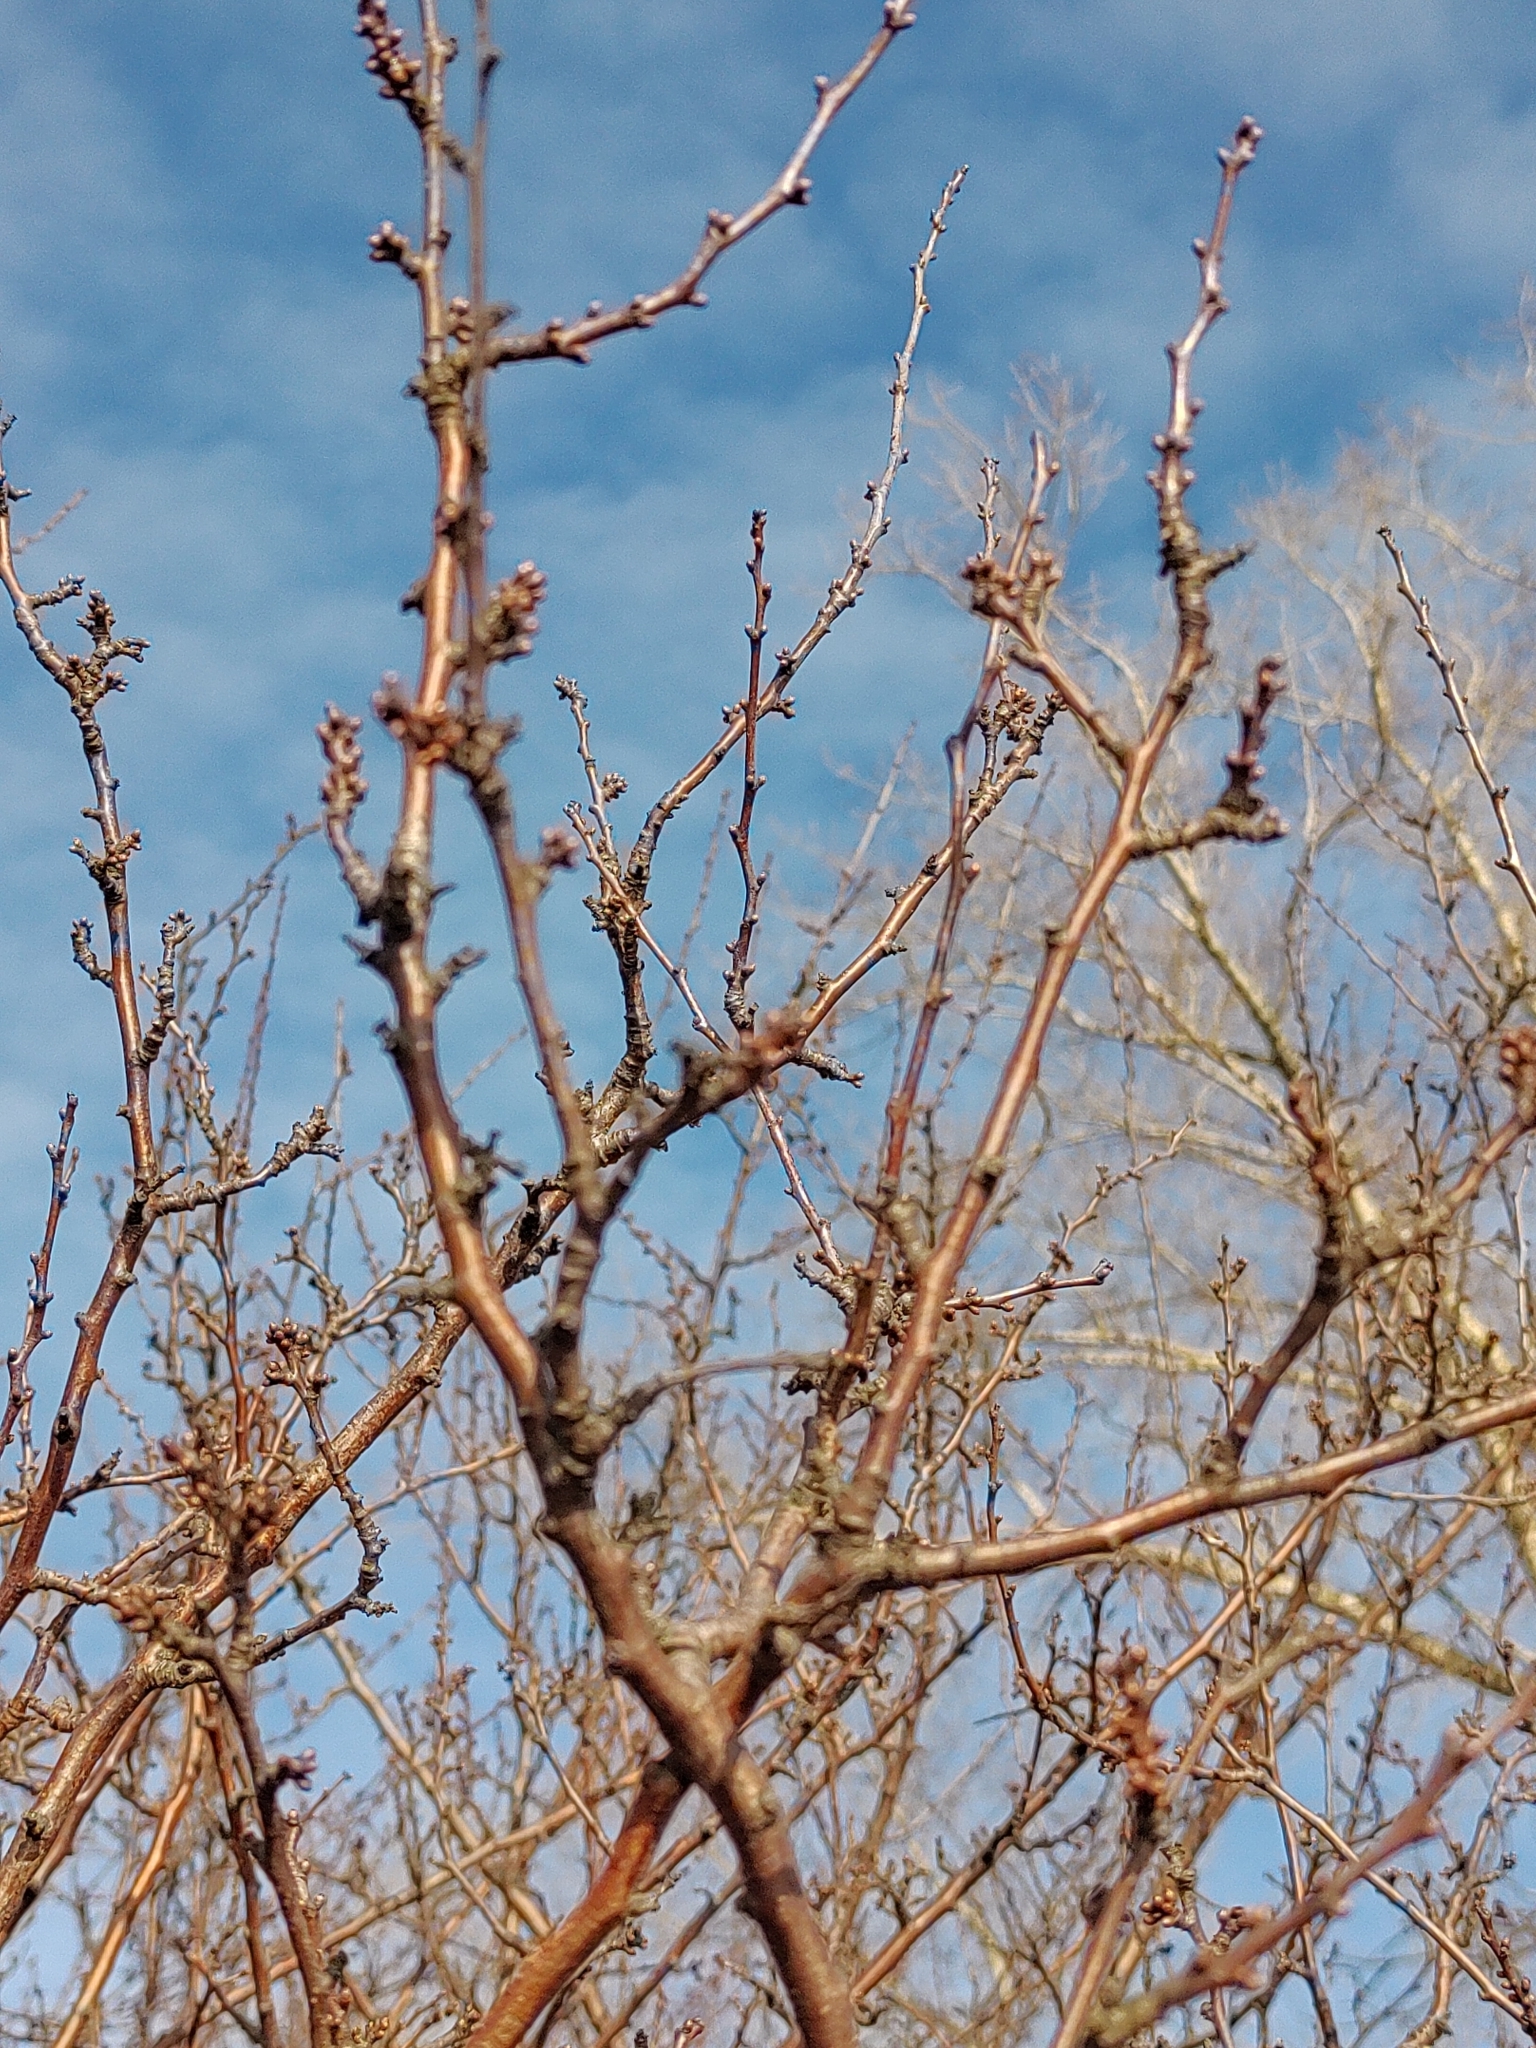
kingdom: Plantae
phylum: Tracheophyta
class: Magnoliopsida
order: Rosales
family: Rosaceae
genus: Prunus
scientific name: Prunus spinosa
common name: Blackthorn
